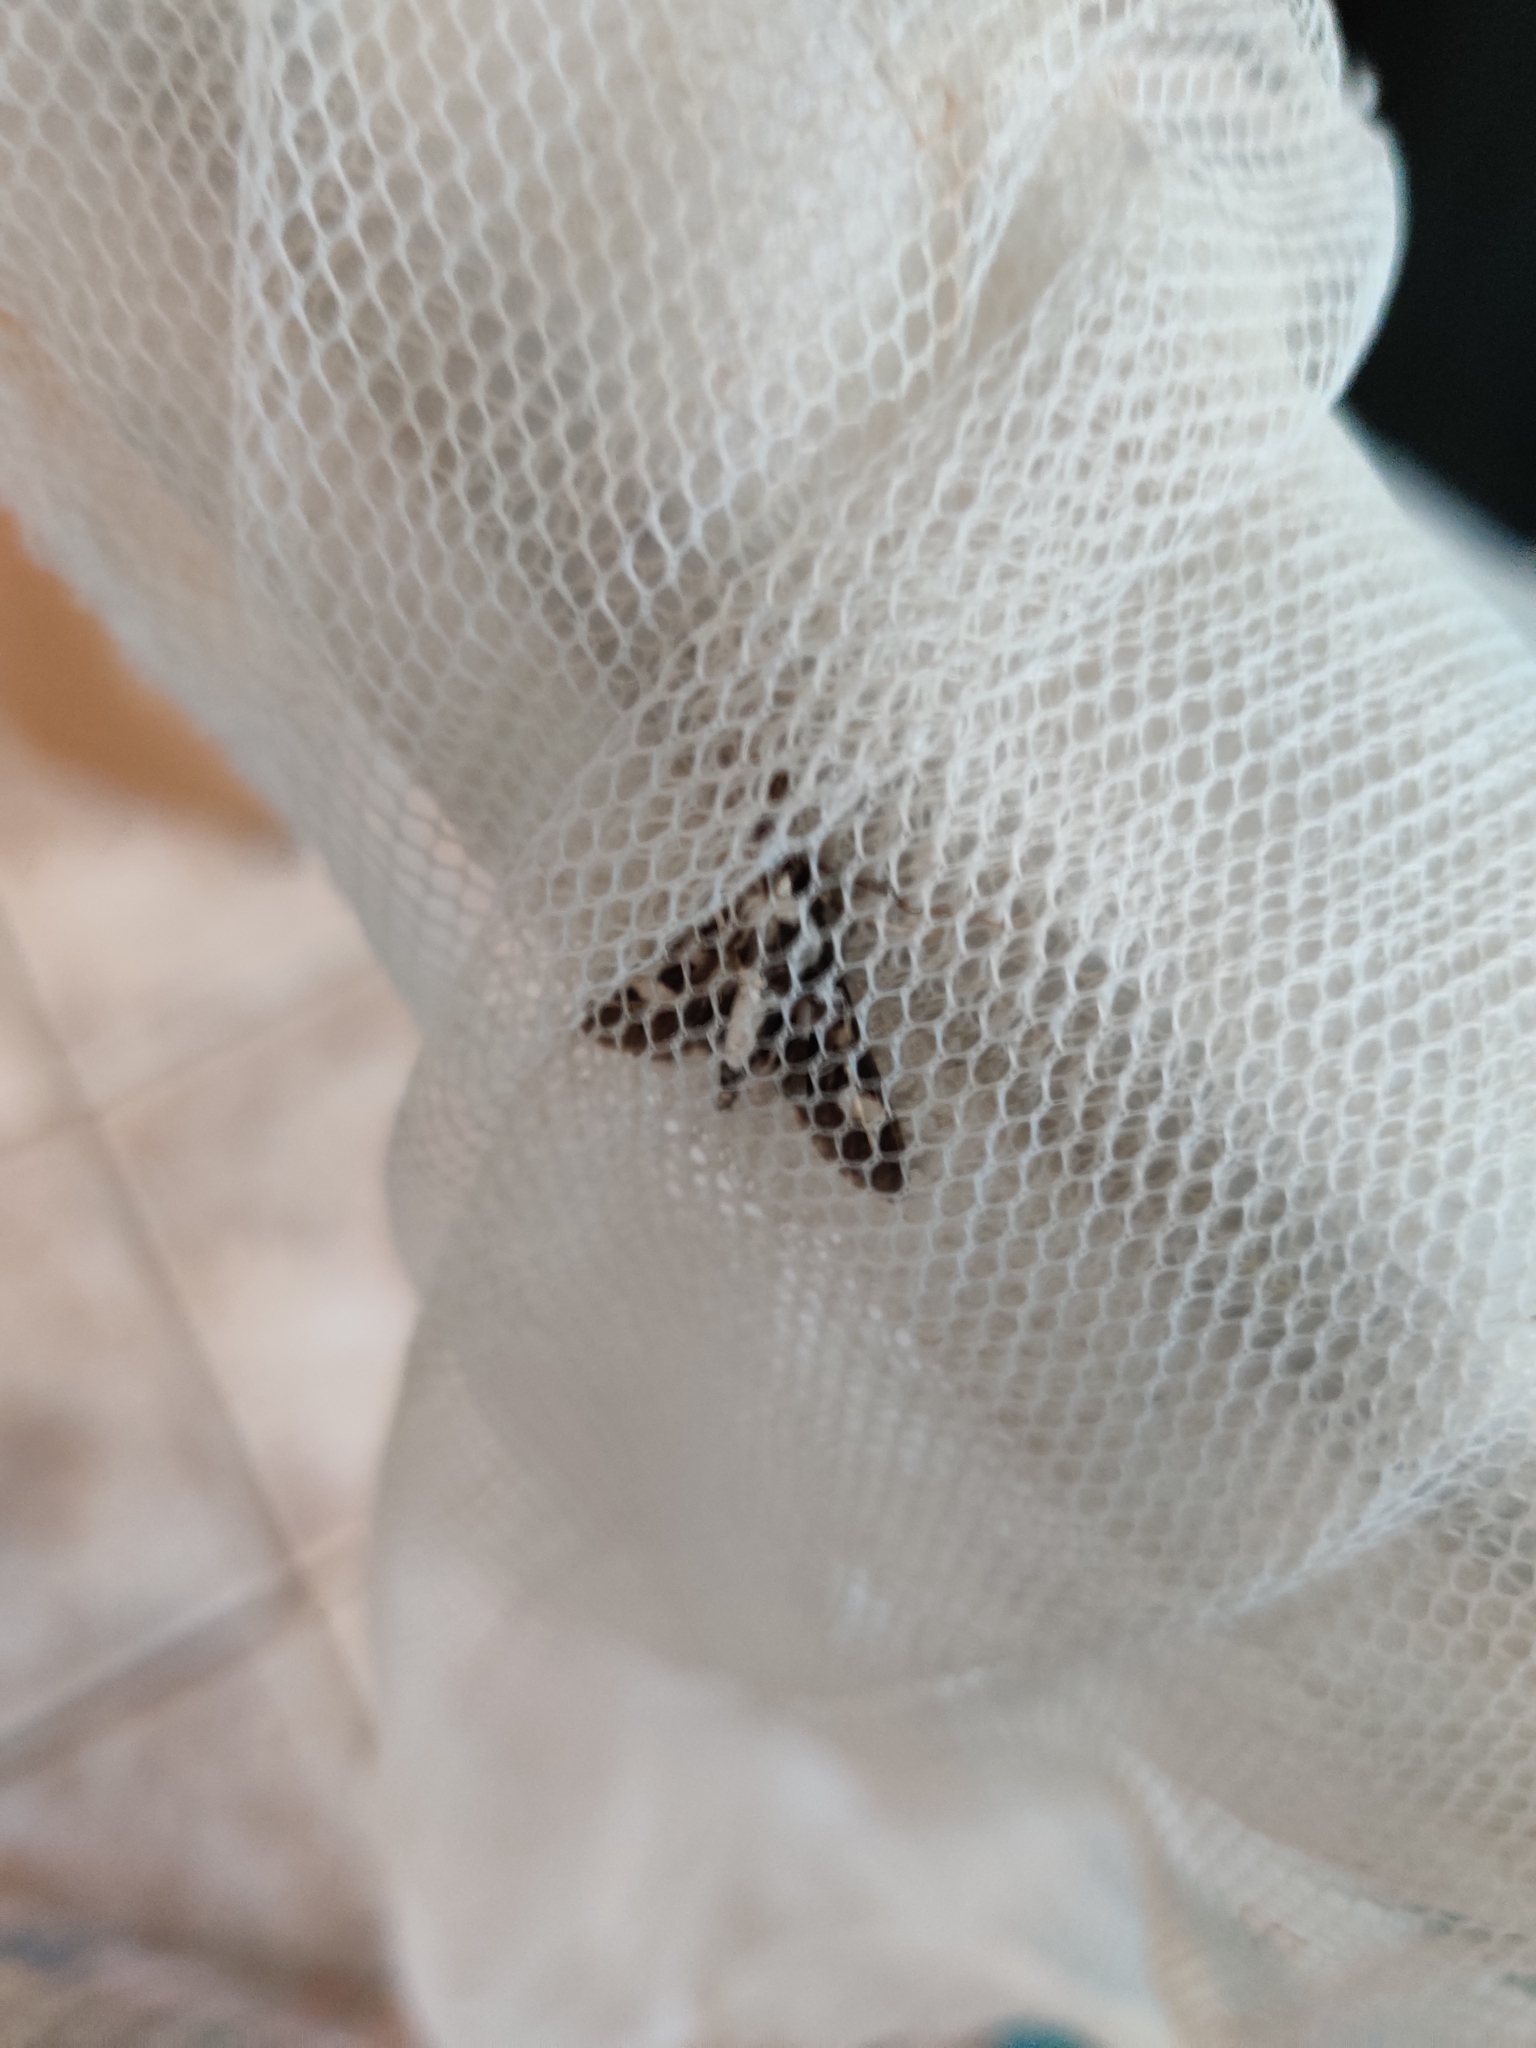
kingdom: Animalia
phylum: Arthropoda
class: Insecta
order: Lepidoptera
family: Crambidae
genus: Desmia
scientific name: Desmia funeralis
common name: Grape leaf folder moth
